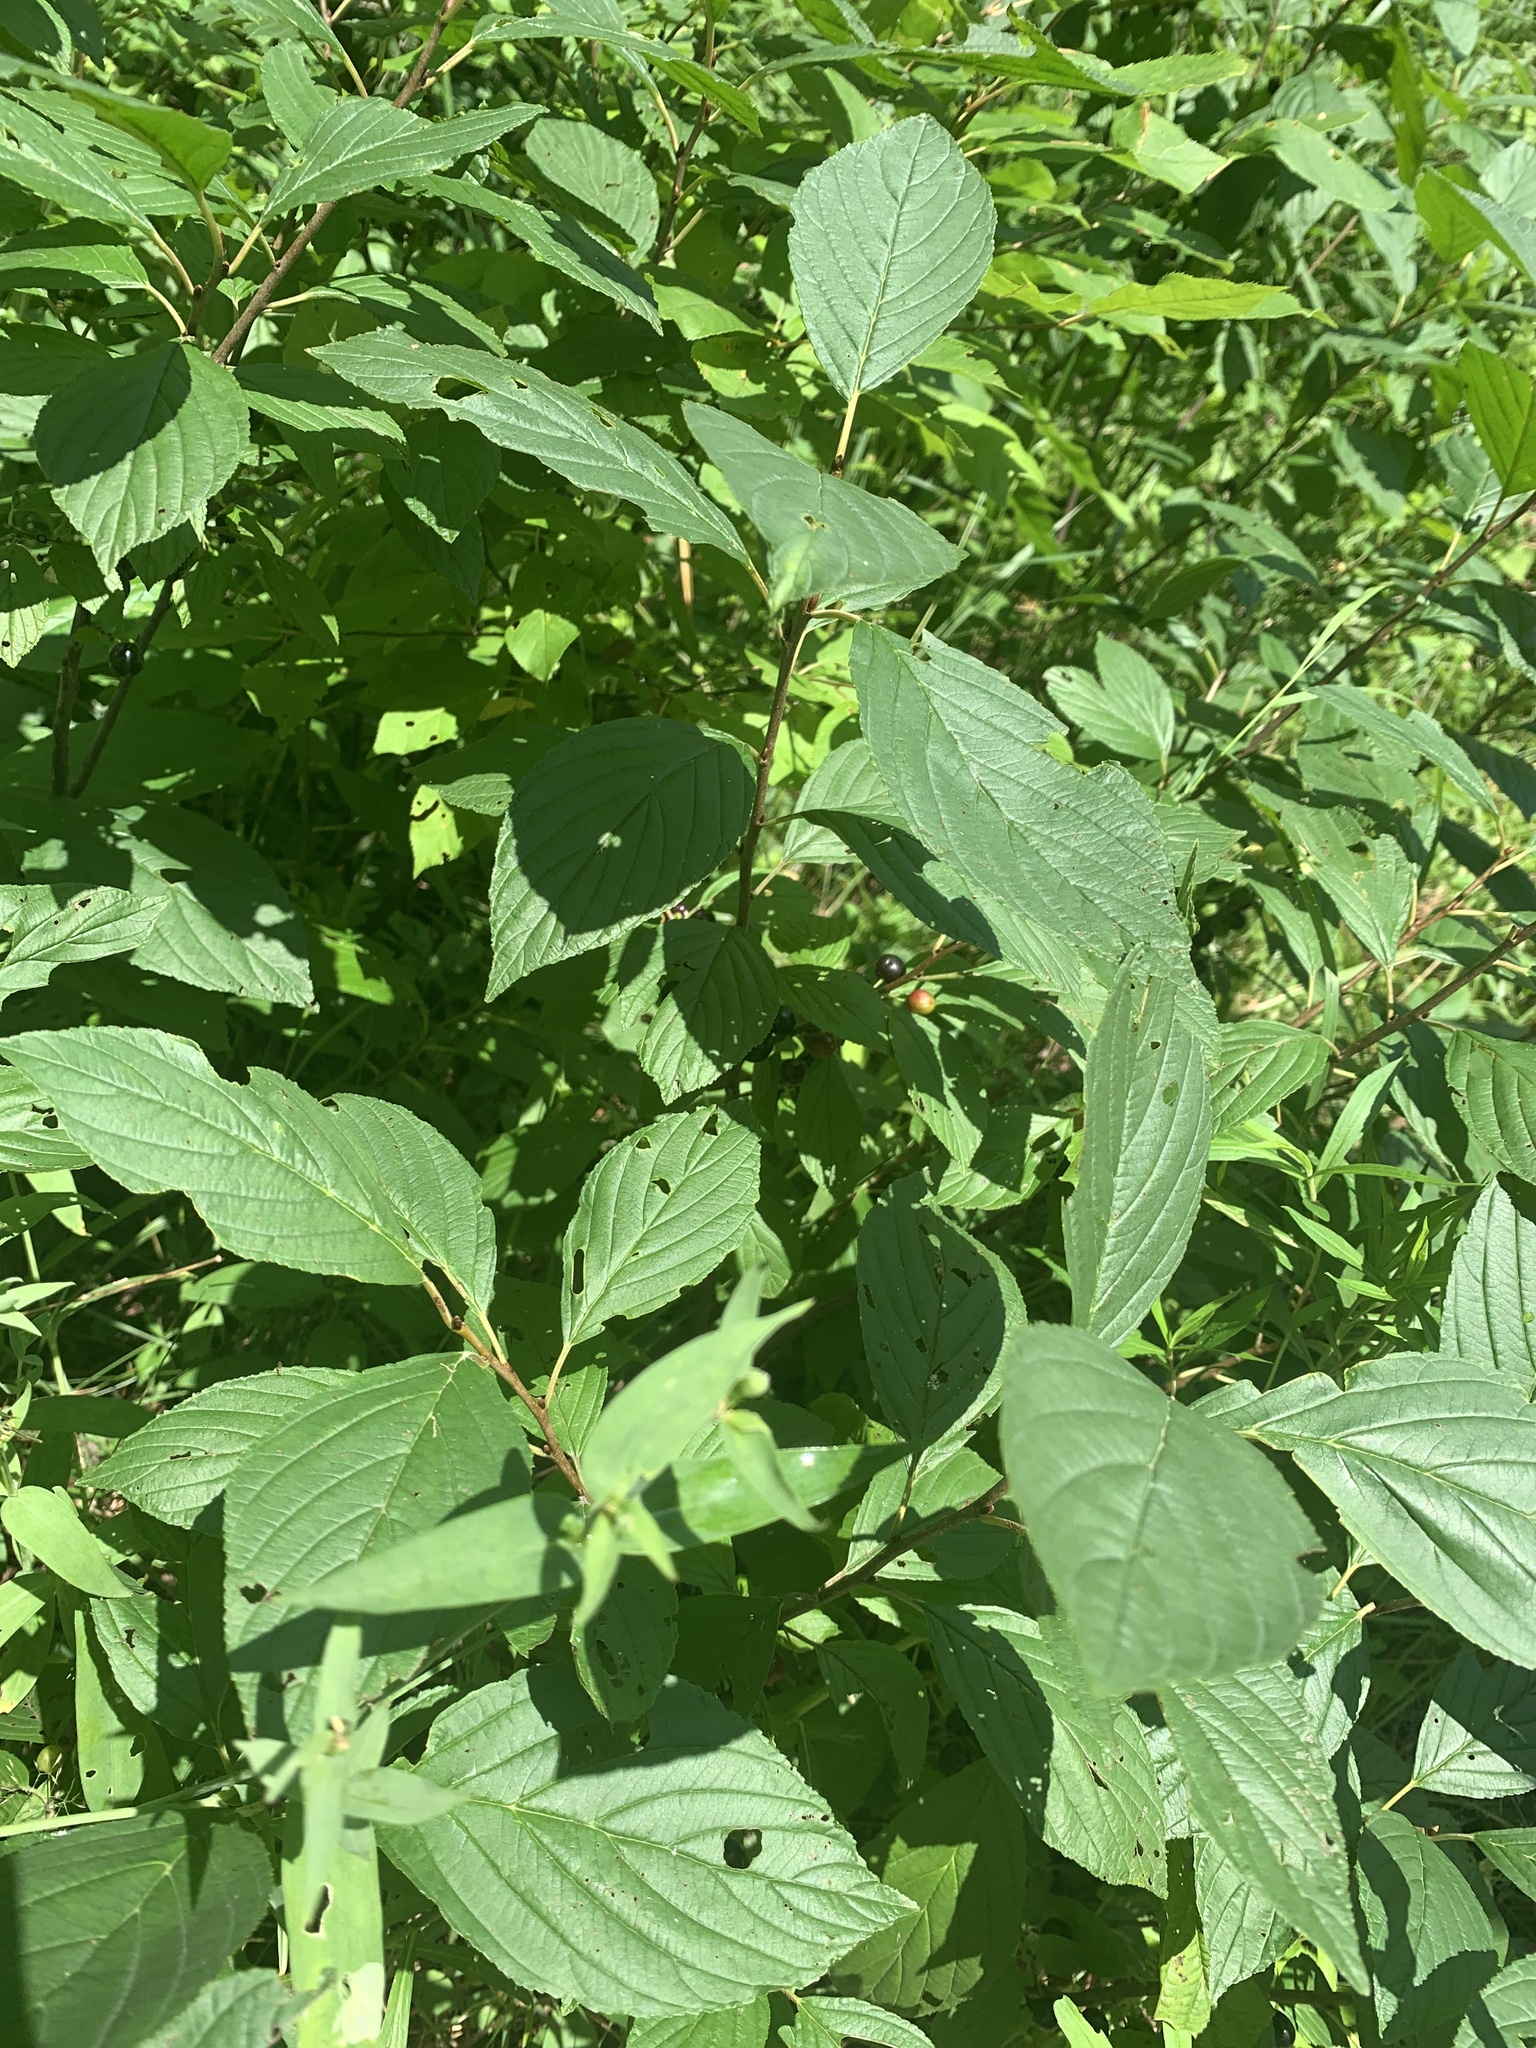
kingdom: Plantae
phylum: Tracheophyta
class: Magnoliopsida
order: Rosales
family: Rhamnaceae
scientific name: Rhamnaceae
